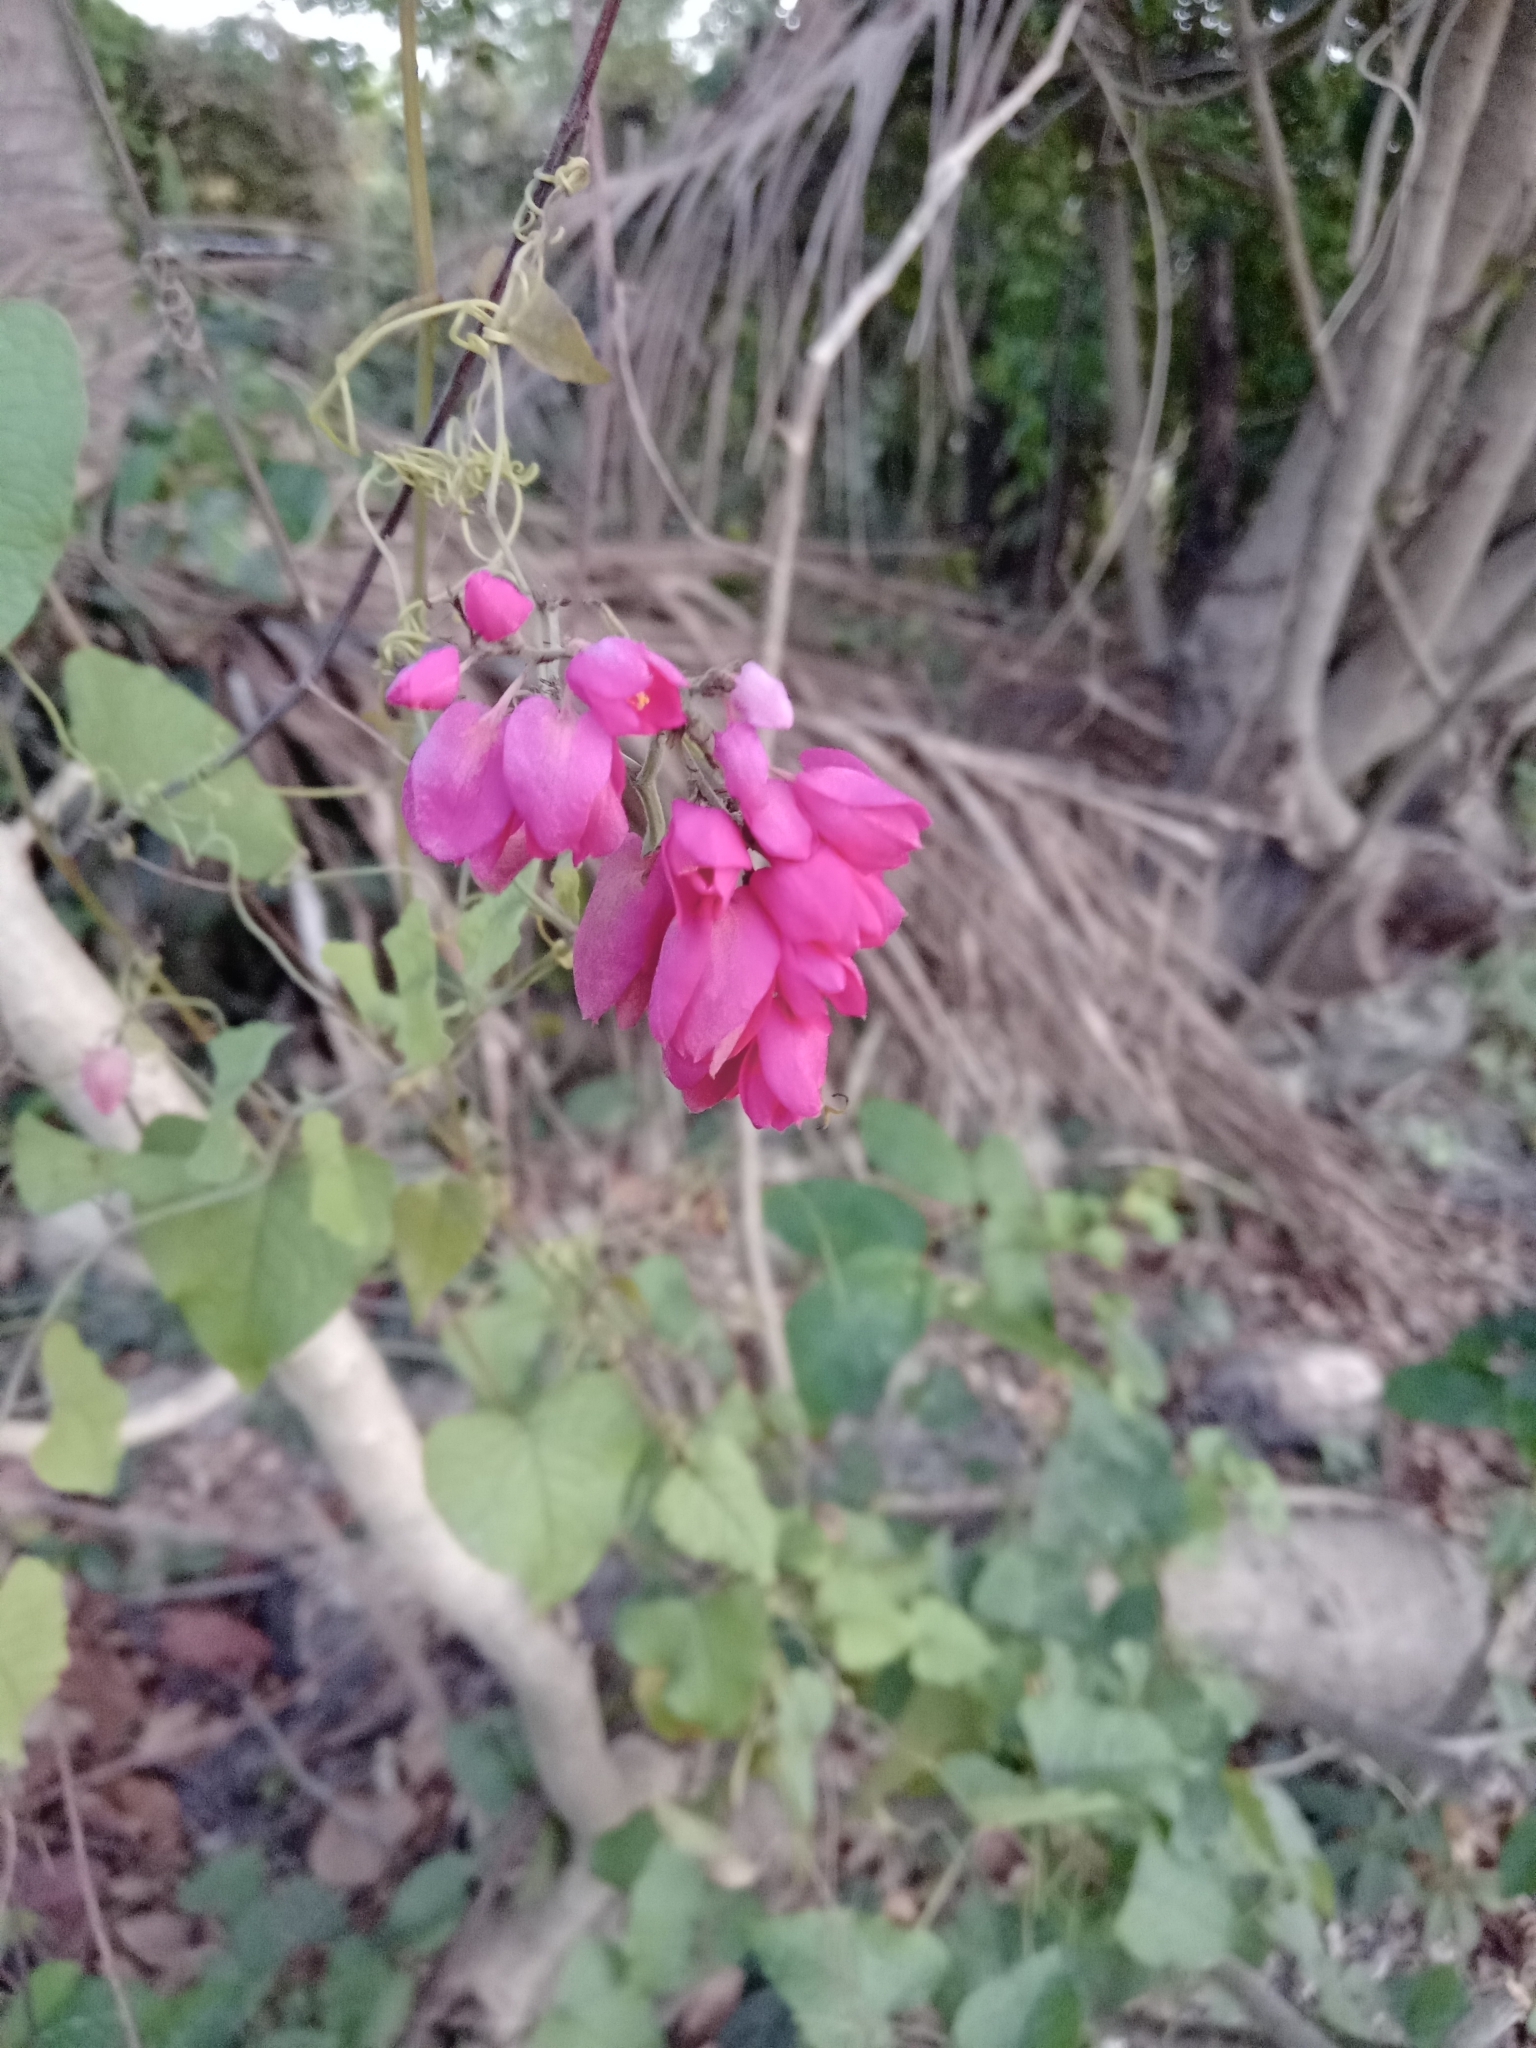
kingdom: Plantae
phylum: Tracheophyta
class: Magnoliopsida
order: Caryophyllales
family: Polygonaceae
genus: Antigonon
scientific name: Antigonon leptopus
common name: Coral vine
